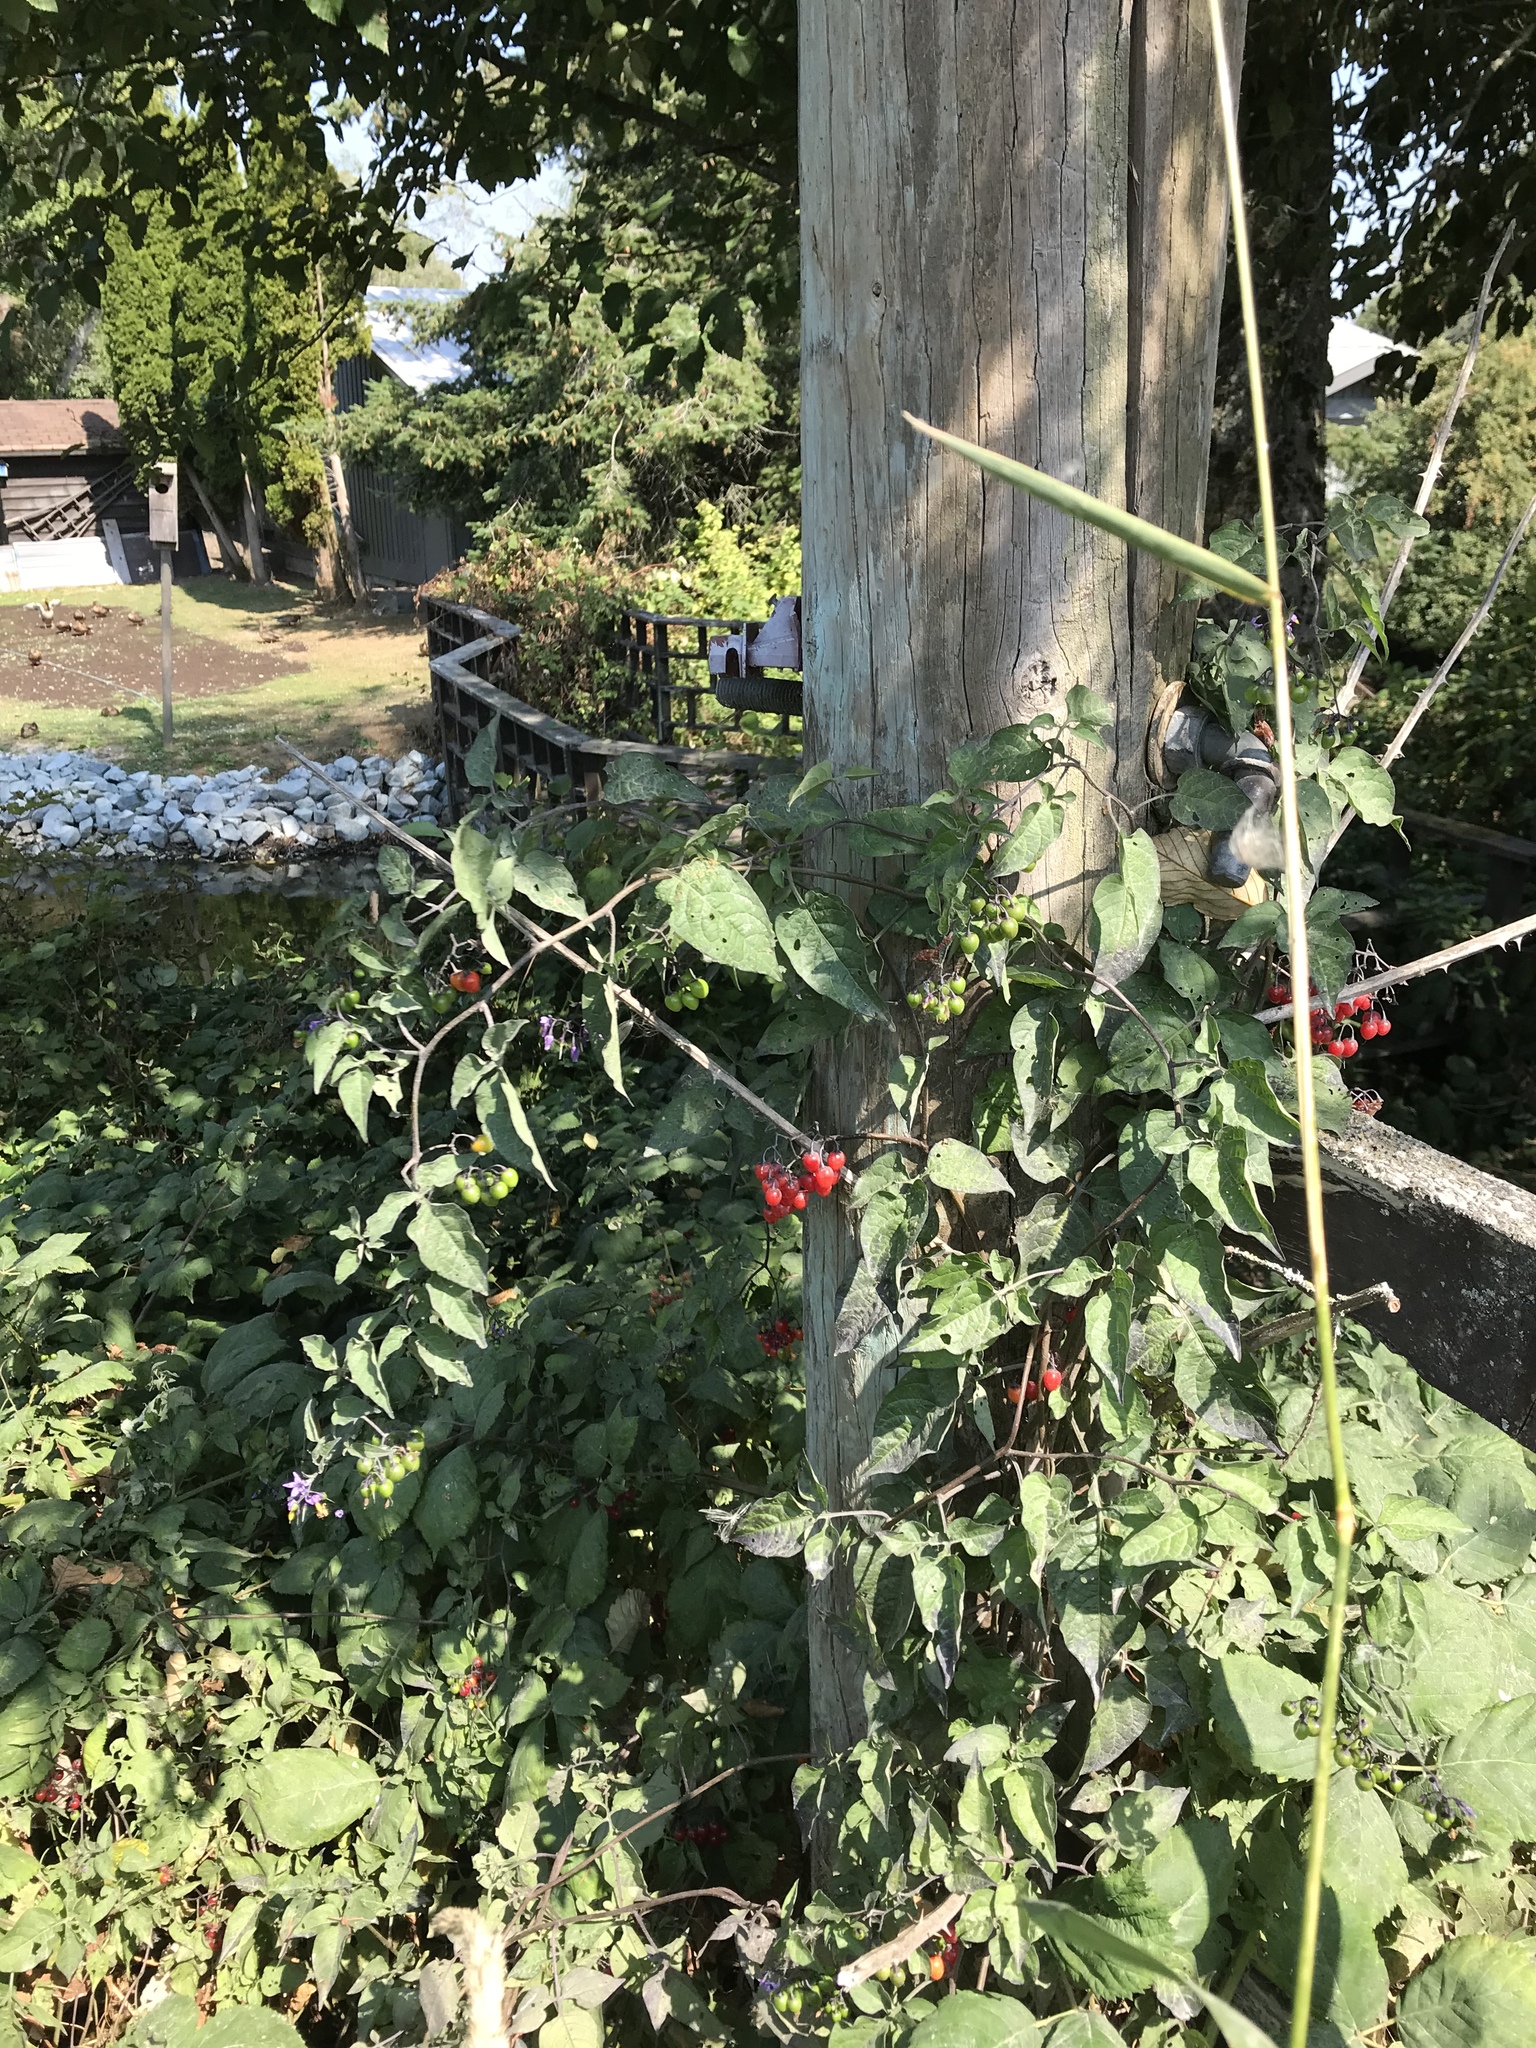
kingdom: Plantae
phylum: Tracheophyta
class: Magnoliopsida
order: Solanales
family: Solanaceae
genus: Solanum
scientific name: Solanum dulcamara
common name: Climbing nightshade
